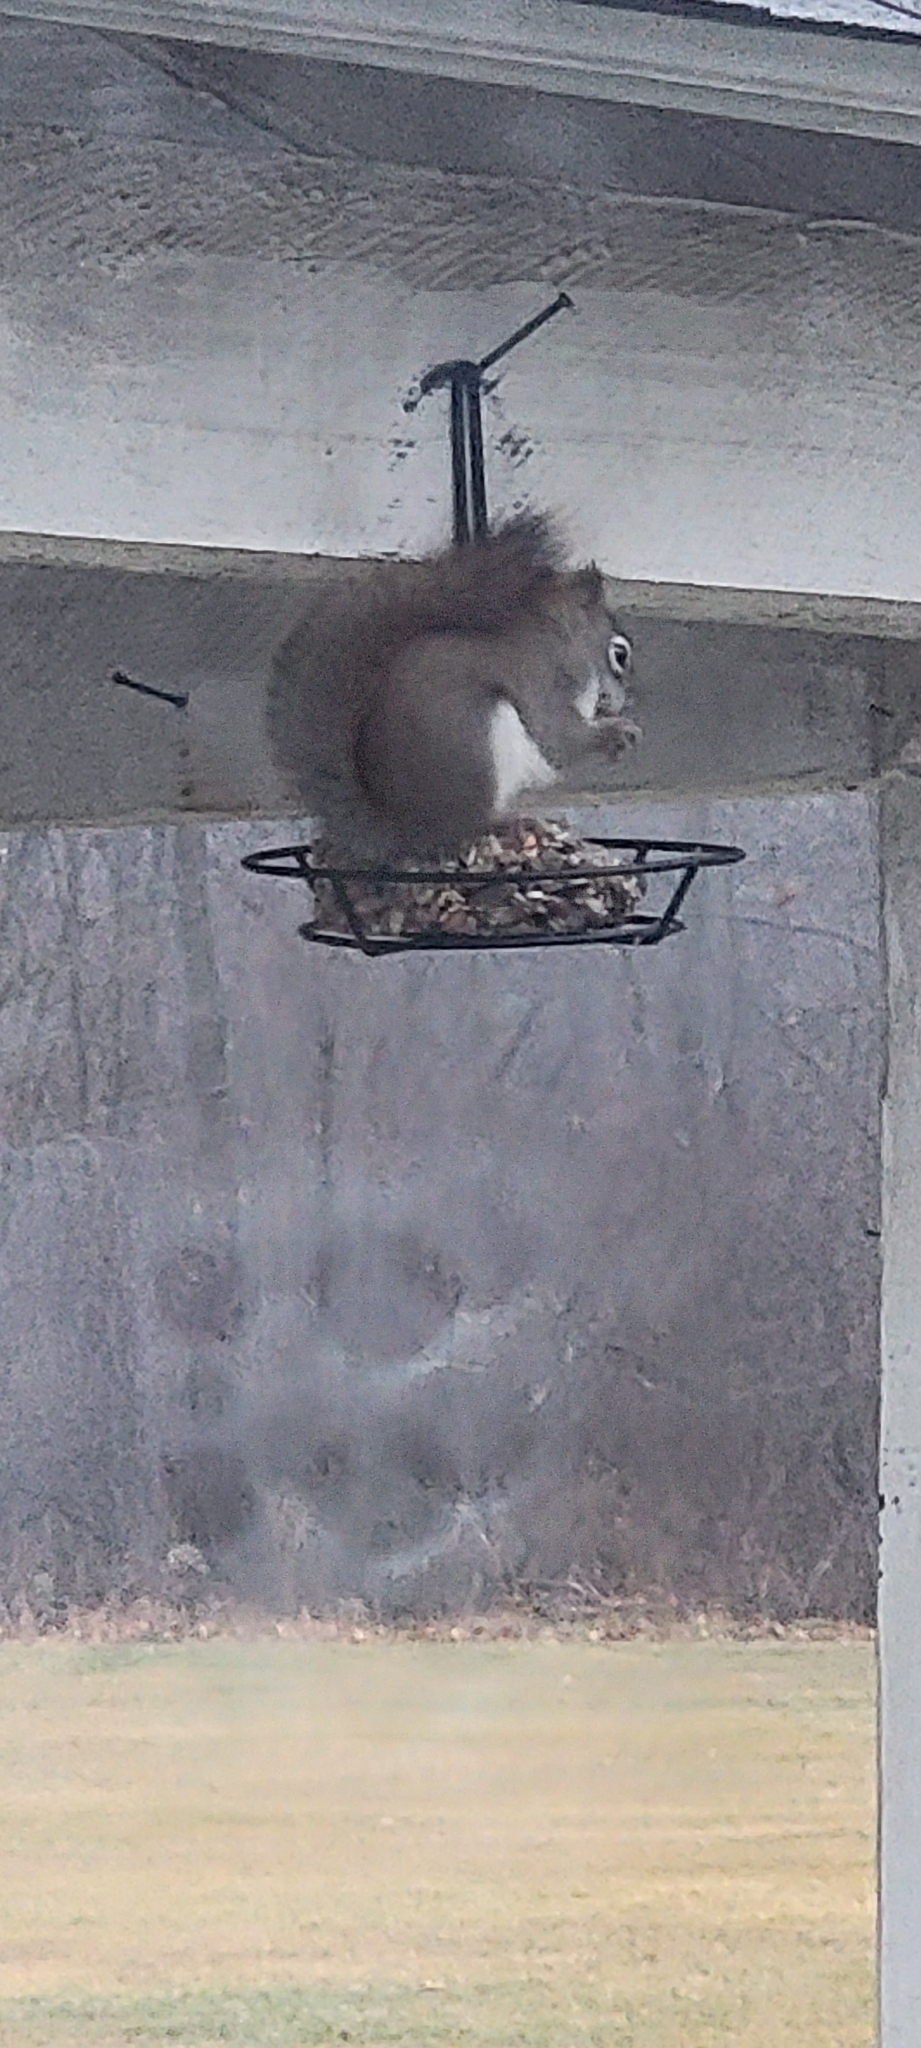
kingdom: Animalia
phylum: Chordata
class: Mammalia
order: Rodentia
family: Sciuridae
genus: Tamiasciurus
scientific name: Tamiasciurus hudsonicus
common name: Red squirrel
